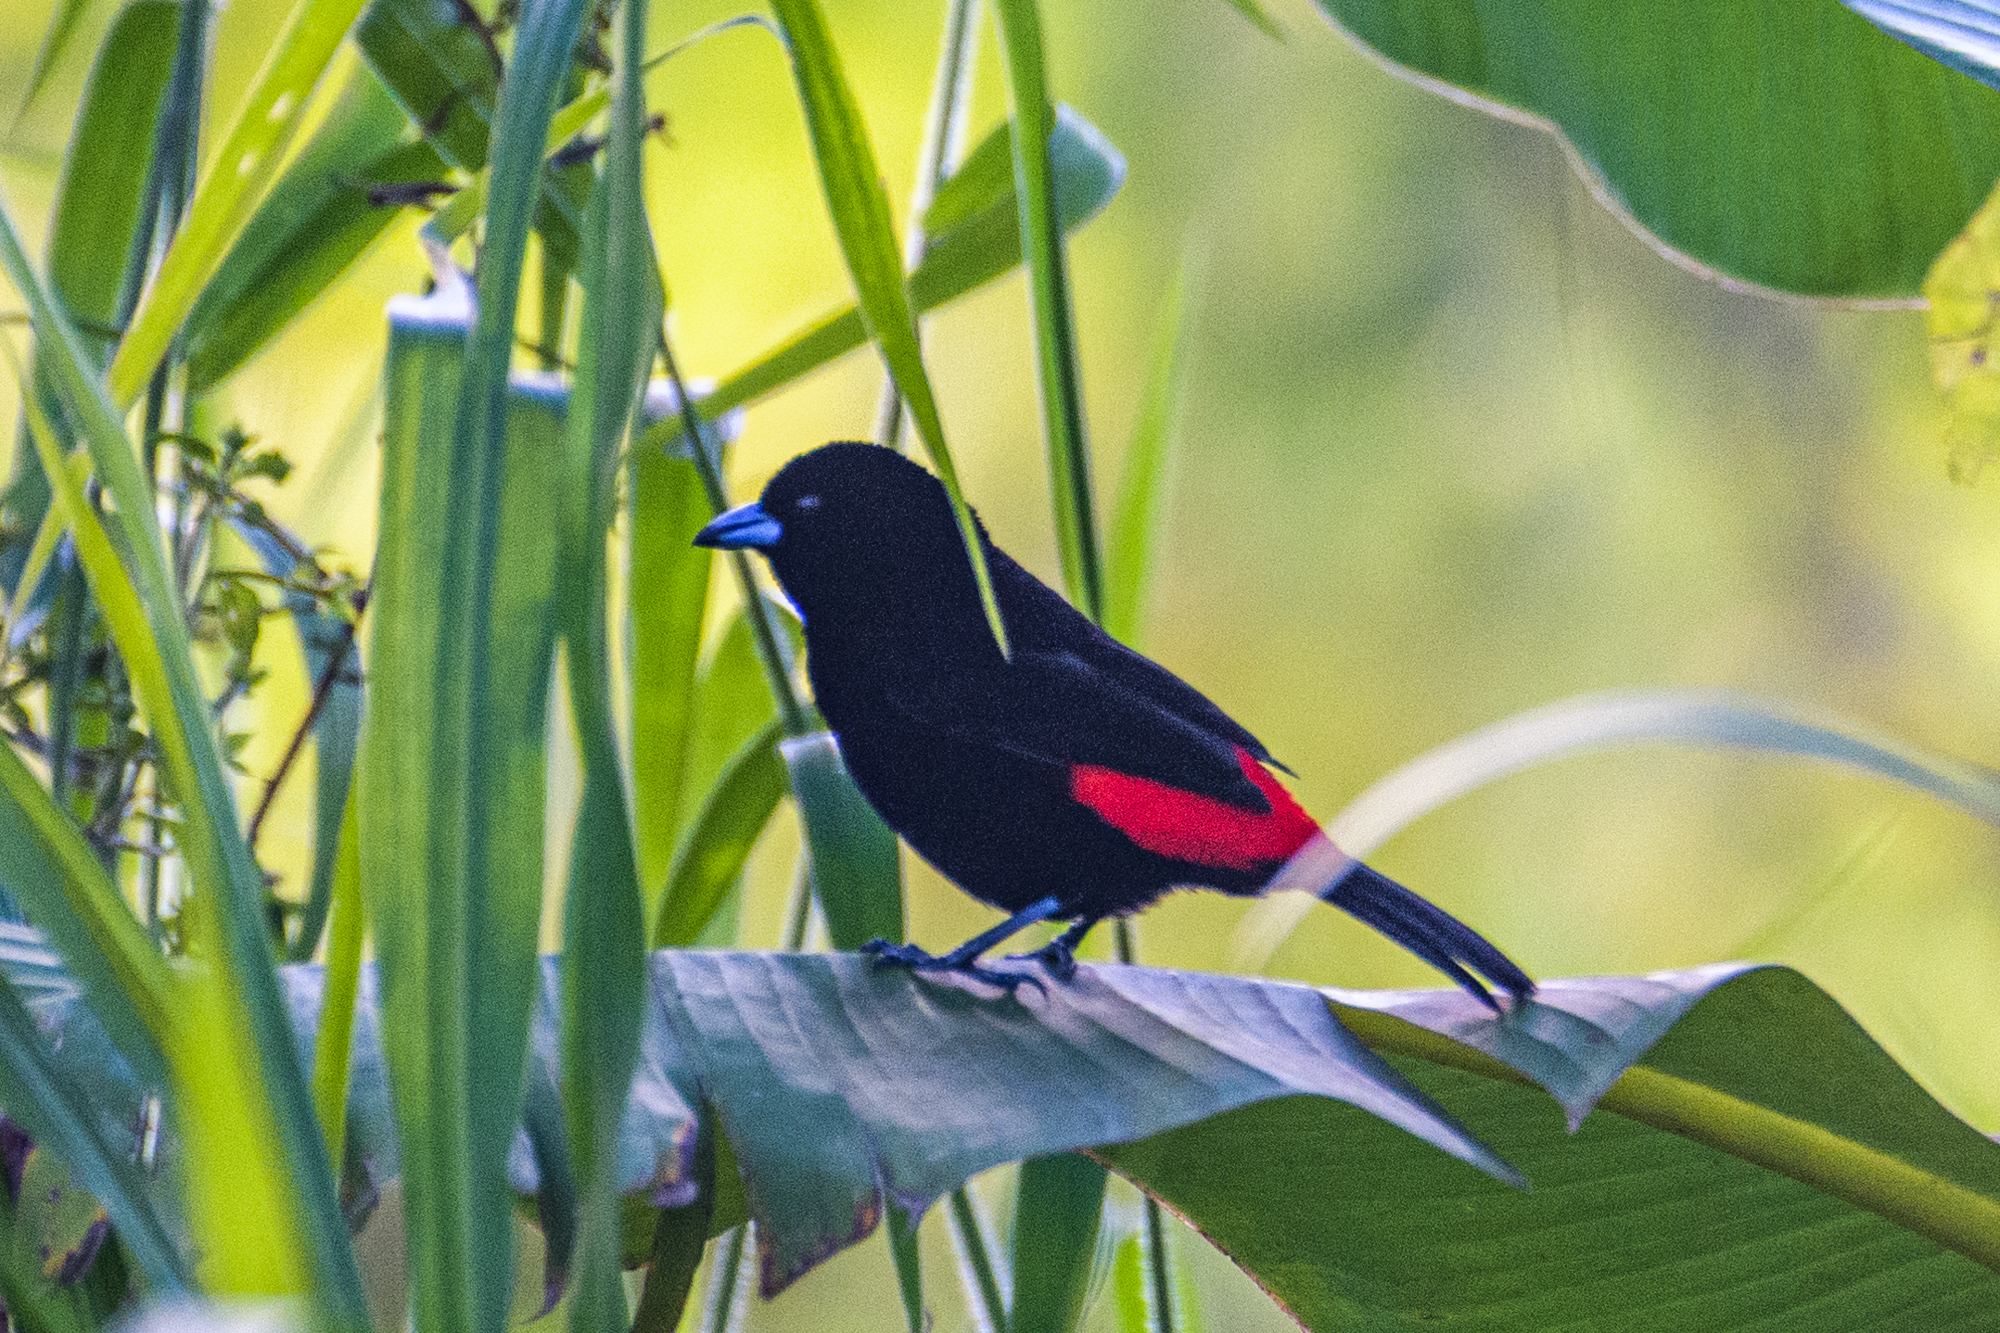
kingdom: Animalia
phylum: Chordata
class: Aves
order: Passeriformes
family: Thraupidae
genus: Ramphocelus
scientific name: Ramphocelus passerinii
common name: Passerini's tanager
